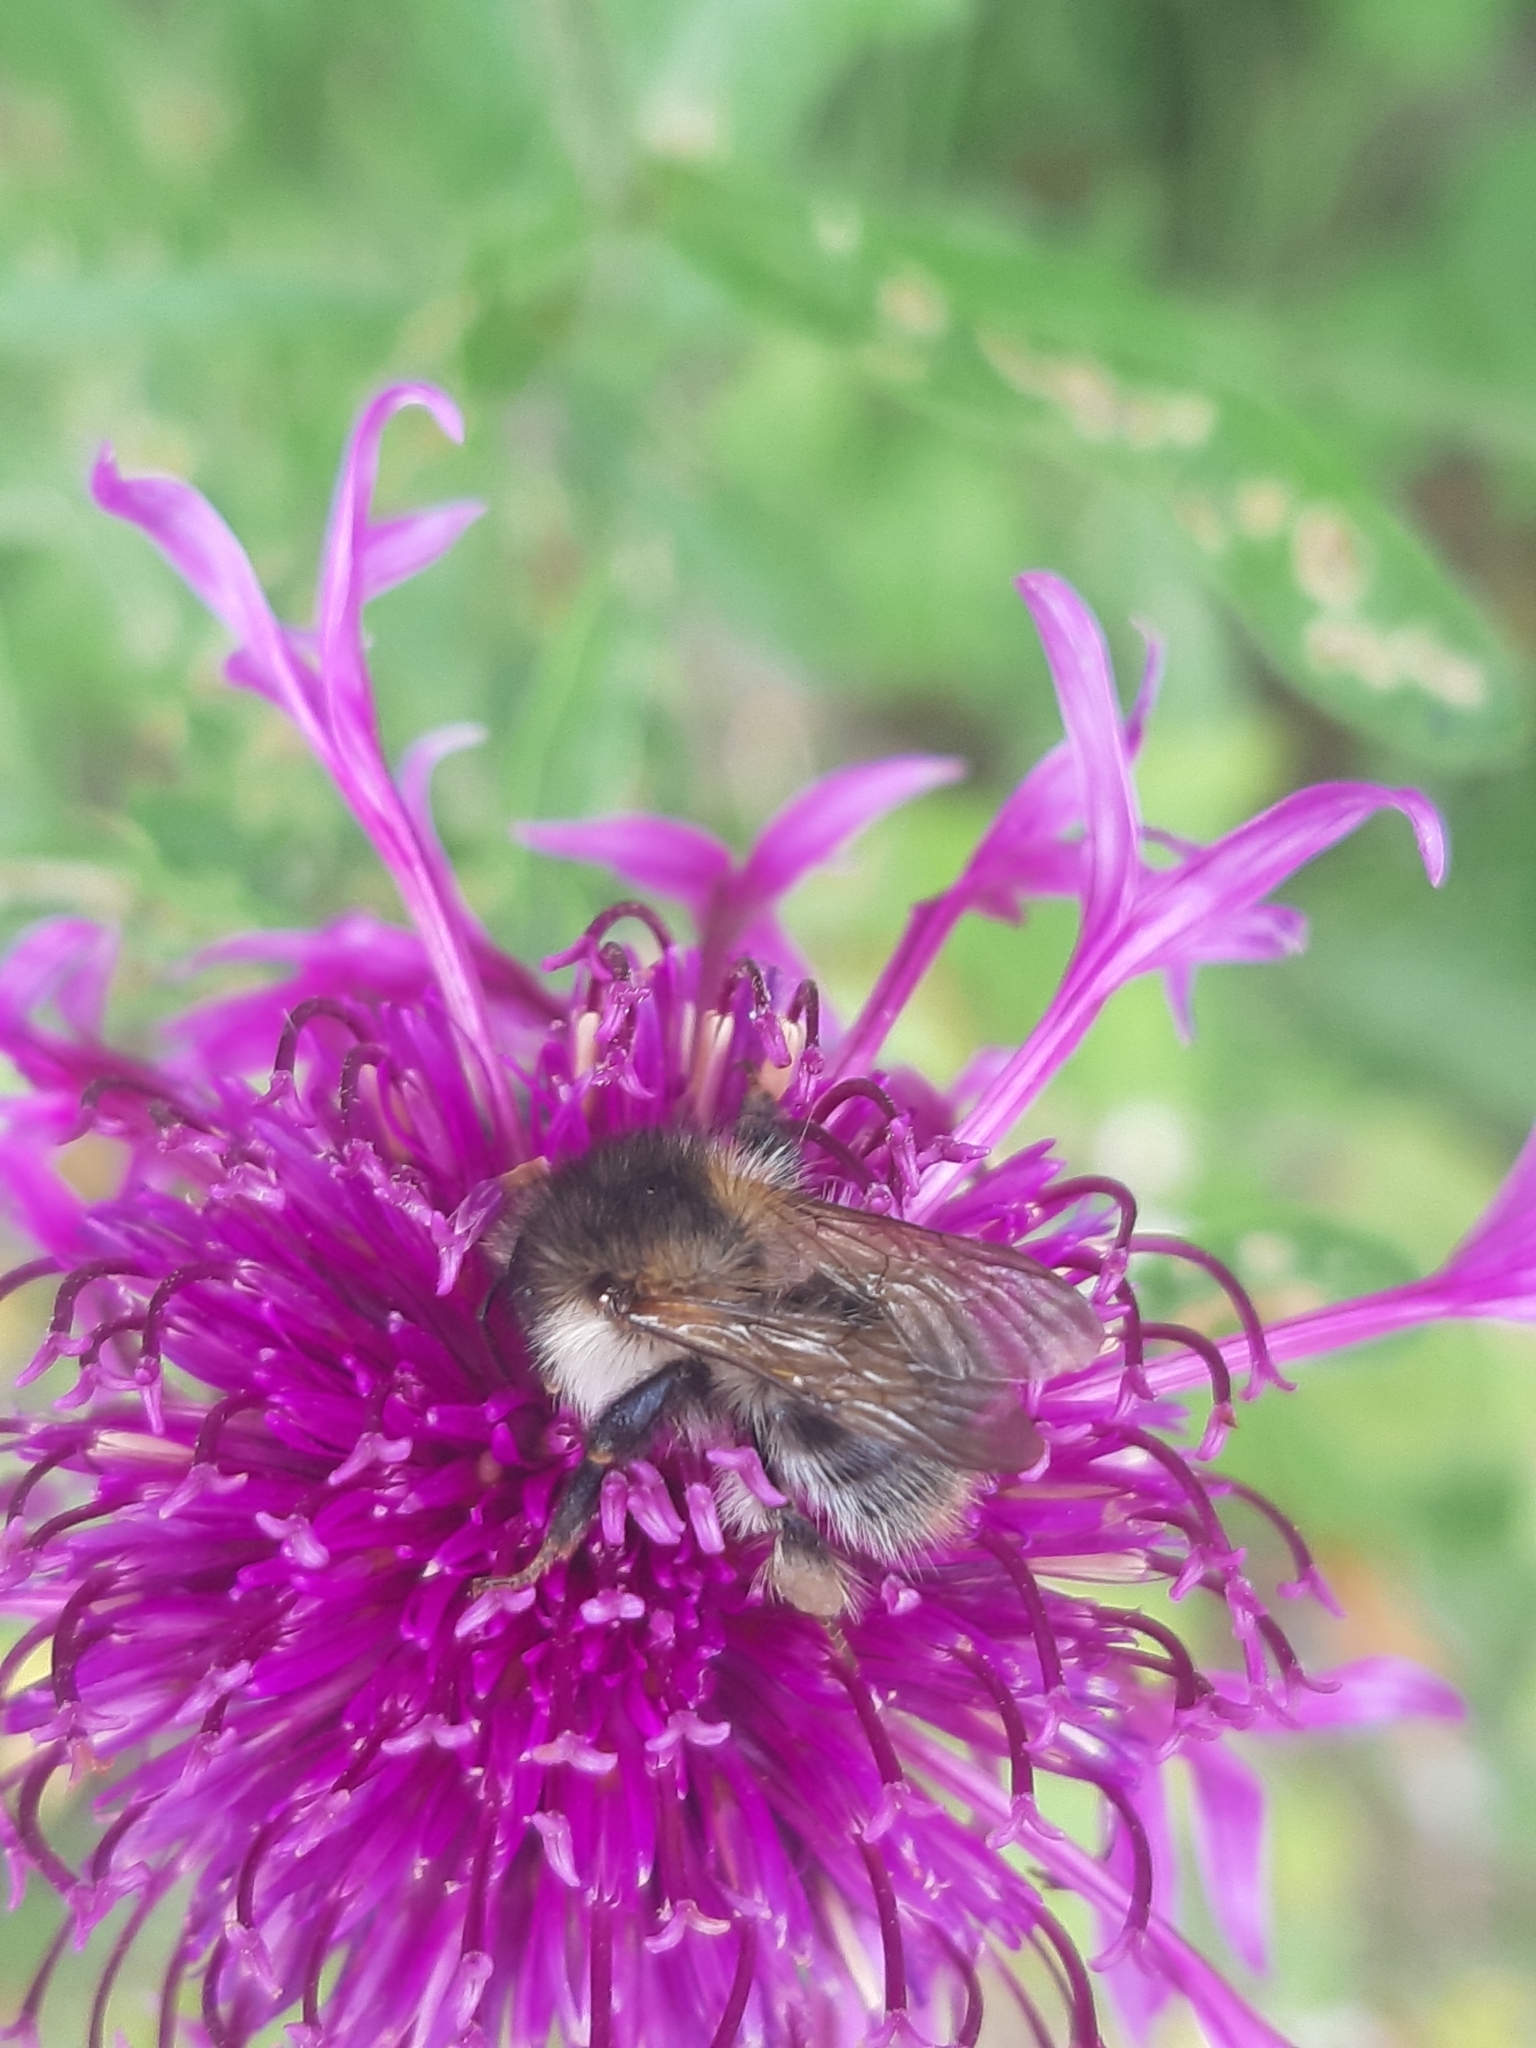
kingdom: Animalia
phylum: Arthropoda
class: Insecta
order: Hymenoptera
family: Apidae
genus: Bombus
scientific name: Bombus pascuorum
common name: Common carder bee
